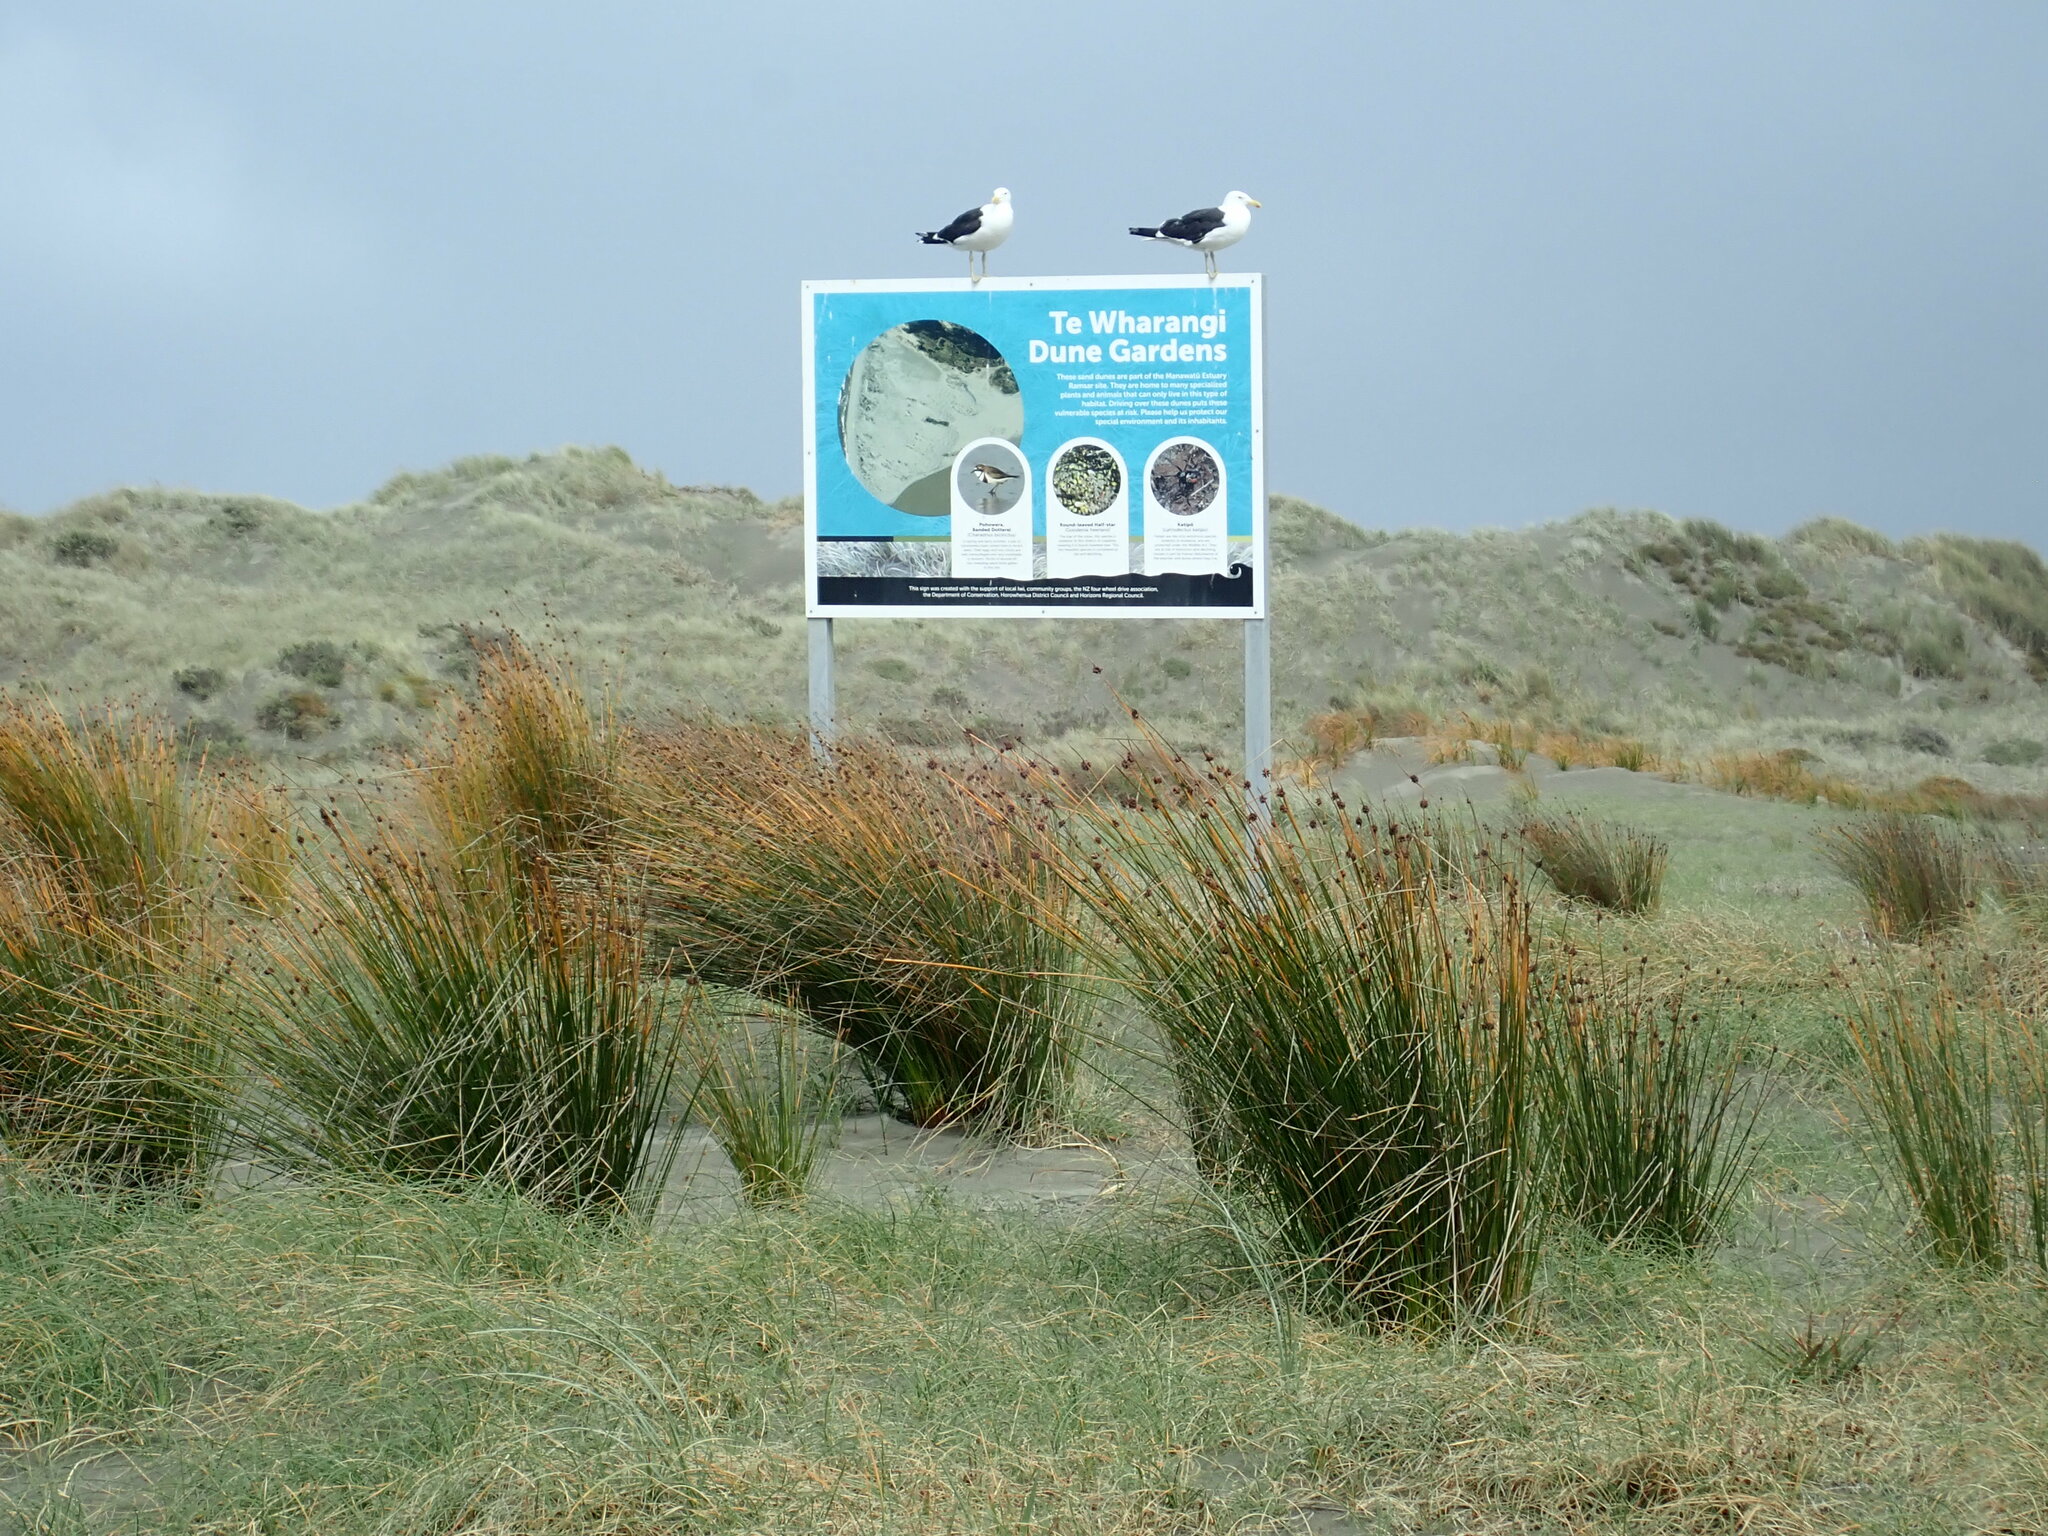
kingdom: Animalia
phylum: Chordata
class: Aves
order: Charadriiformes
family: Laridae
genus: Larus
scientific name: Larus dominicanus
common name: Kelp gull
